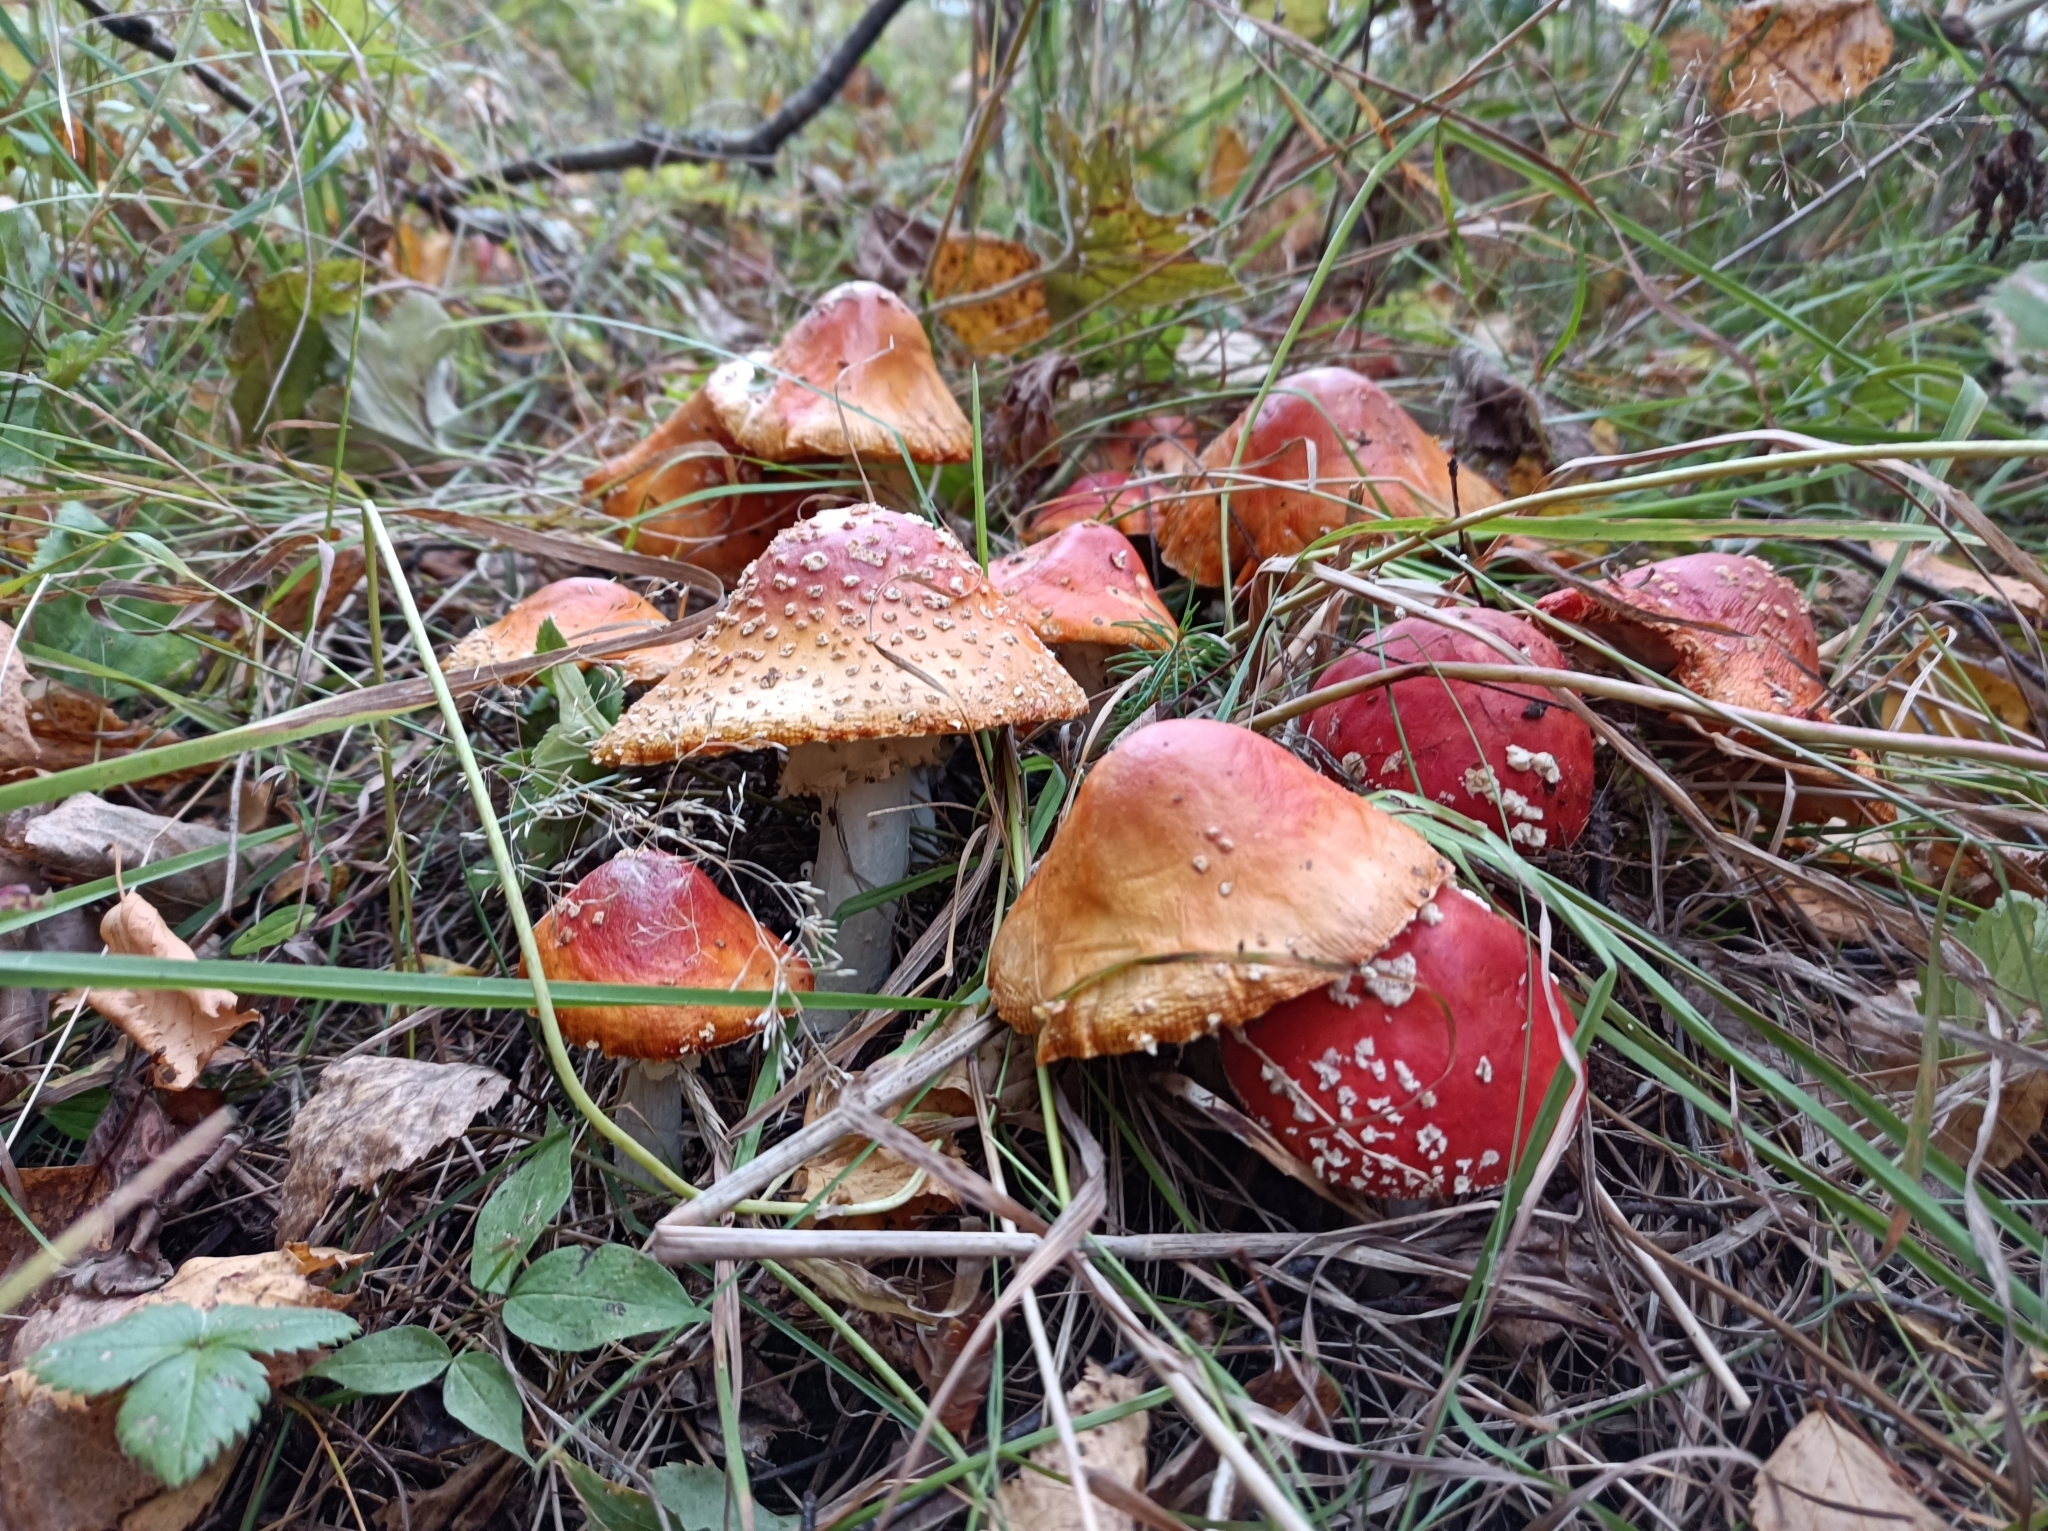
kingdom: Fungi
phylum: Basidiomycota
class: Agaricomycetes
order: Agaricales
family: Amanitaceae
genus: Amanita
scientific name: Amanita muscaria
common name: Fly agaric
